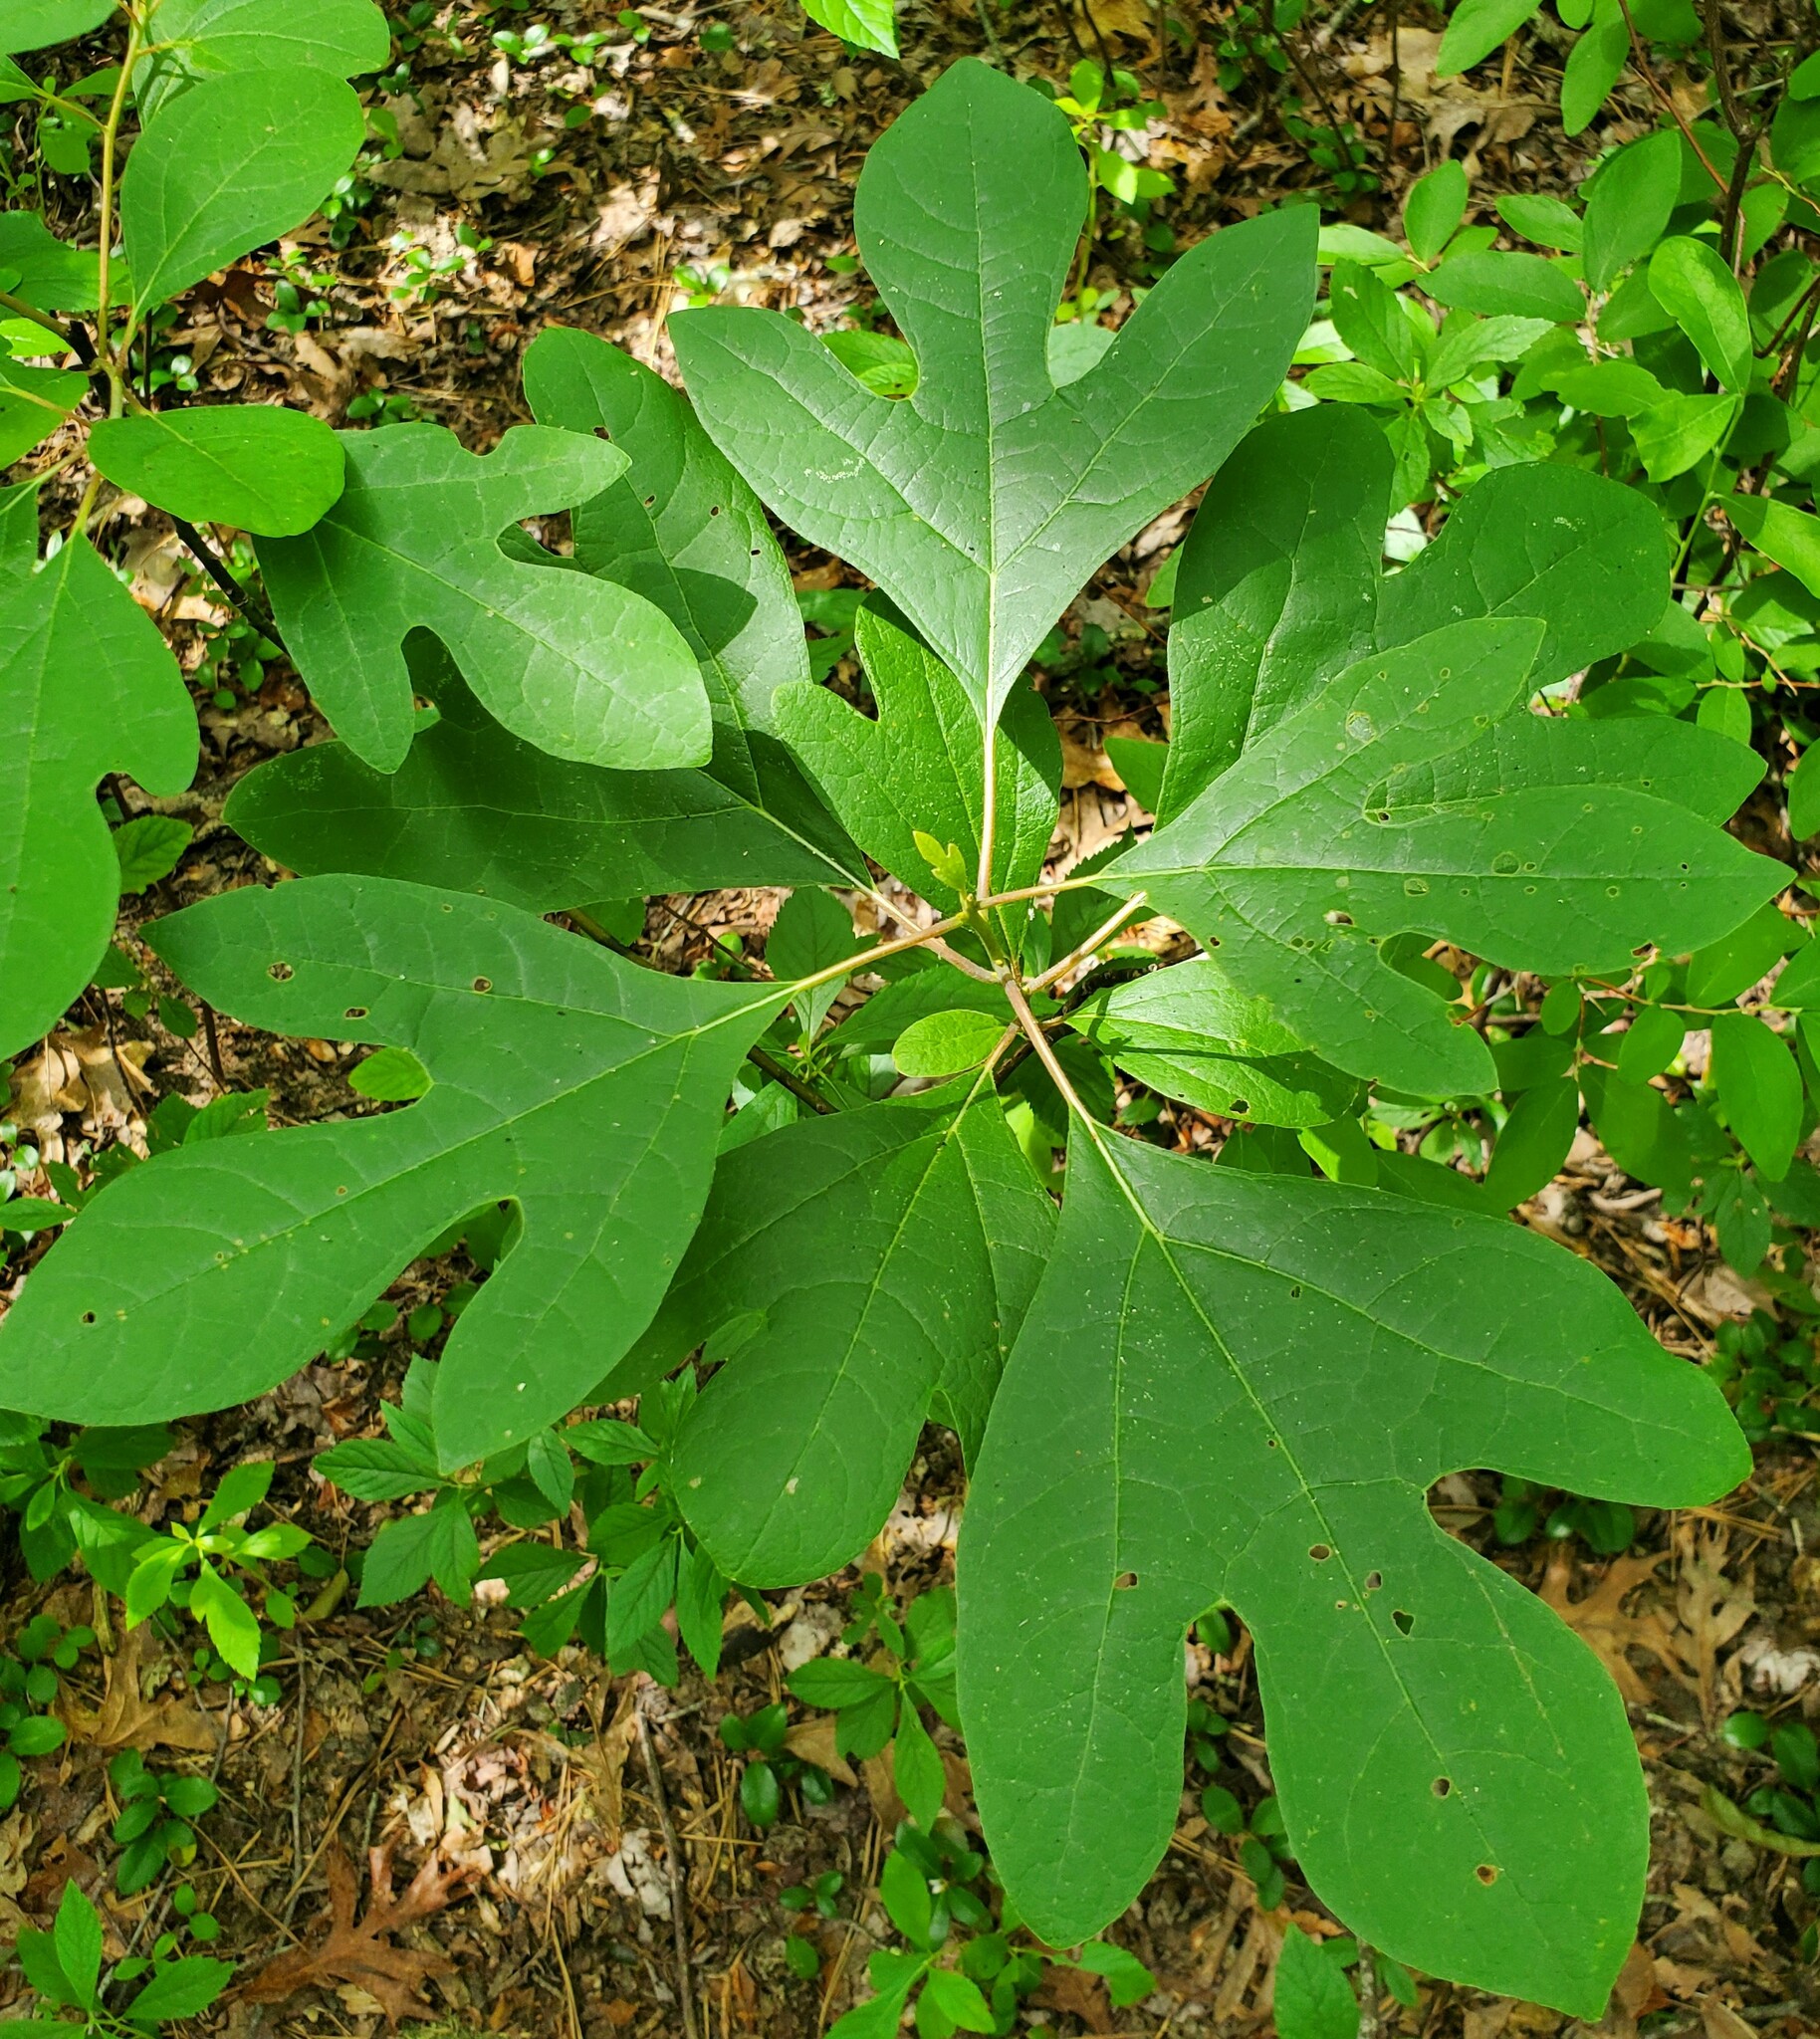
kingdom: Plantae
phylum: Tracheophyta
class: Magnoliopsida
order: Laurales
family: Lauraceae
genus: Sassafras
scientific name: Sassafras albidum
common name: Sassafras
